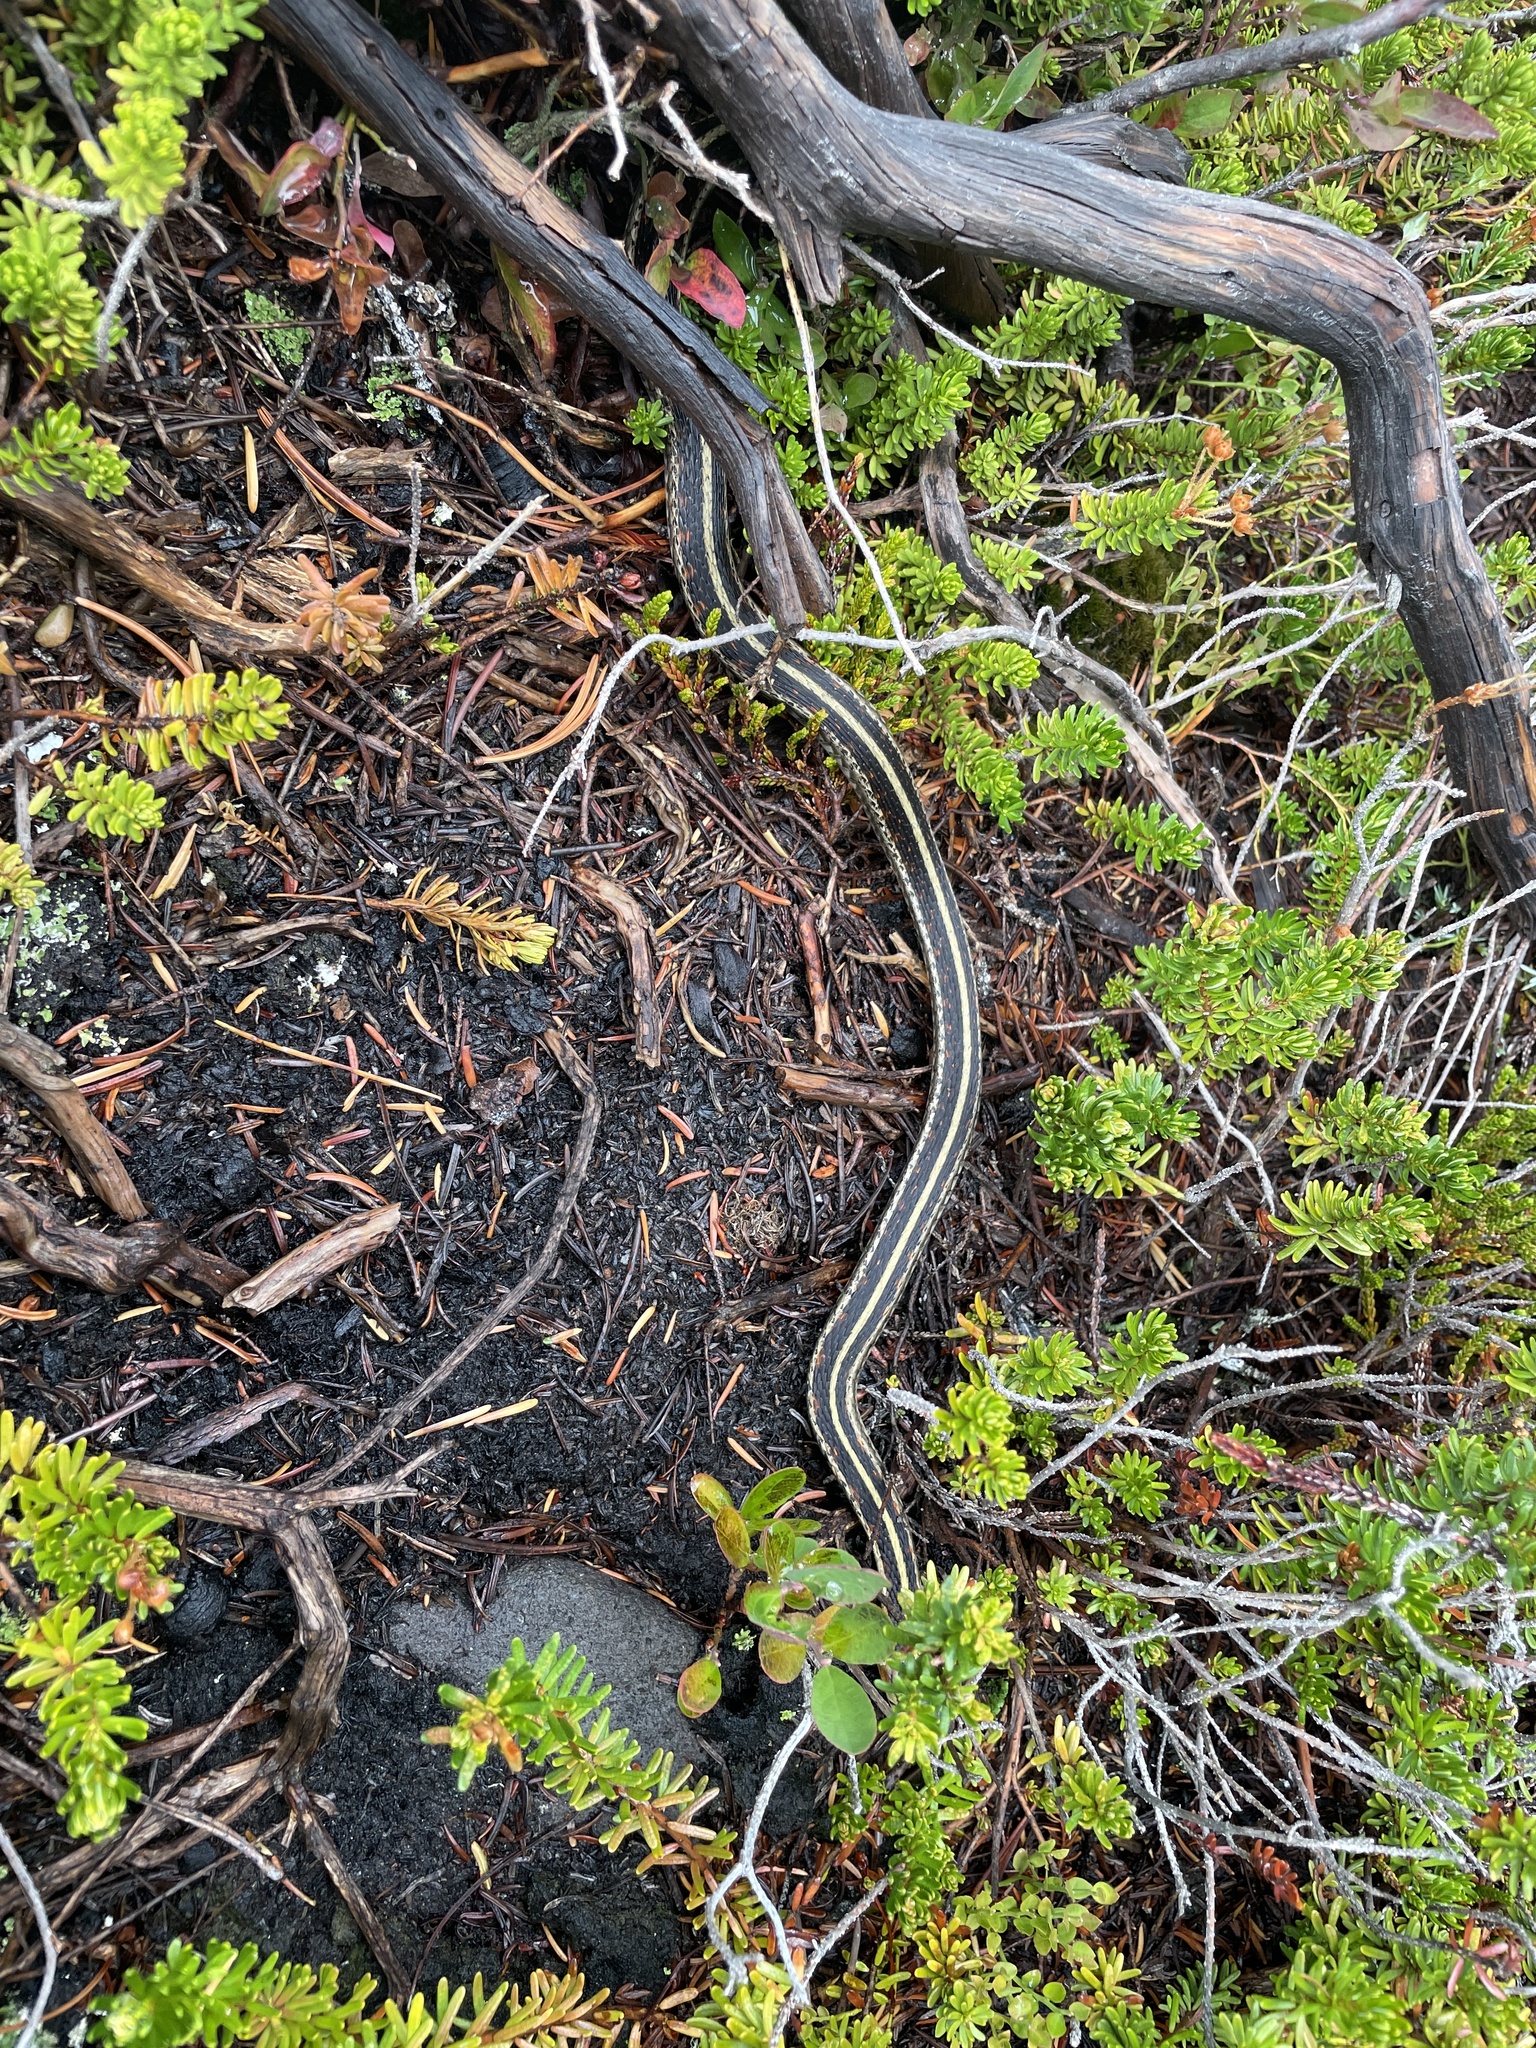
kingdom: Animalia
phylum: Chordata
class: Squamata
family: Colubridae
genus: Thamnophis
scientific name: Thamnophis sirtalis
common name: Common garter snake
